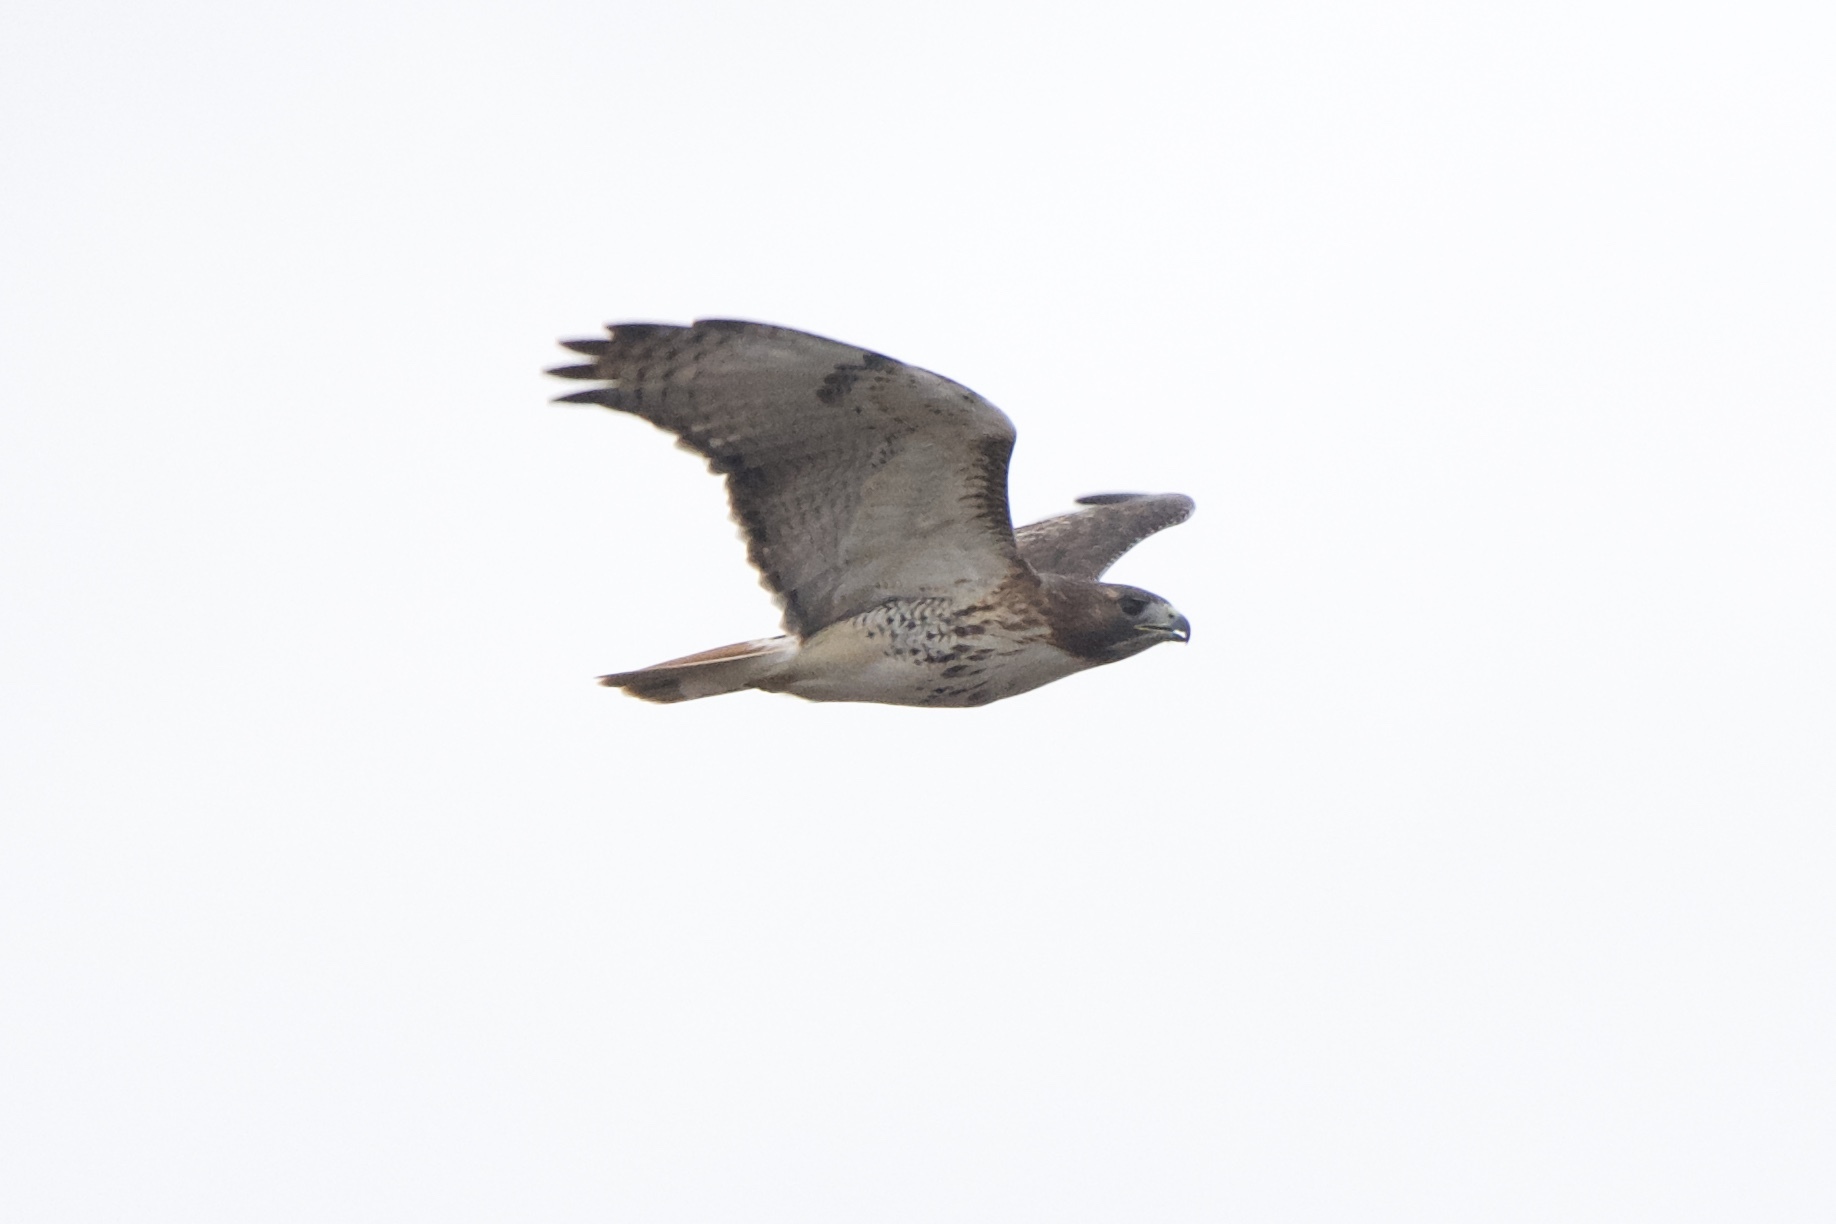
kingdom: Animalia
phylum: Chordata
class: Aves
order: Accipitriformes
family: Accipitridae
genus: Buteo
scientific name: Buteo jamaicensis
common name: Red-tailed hawk
